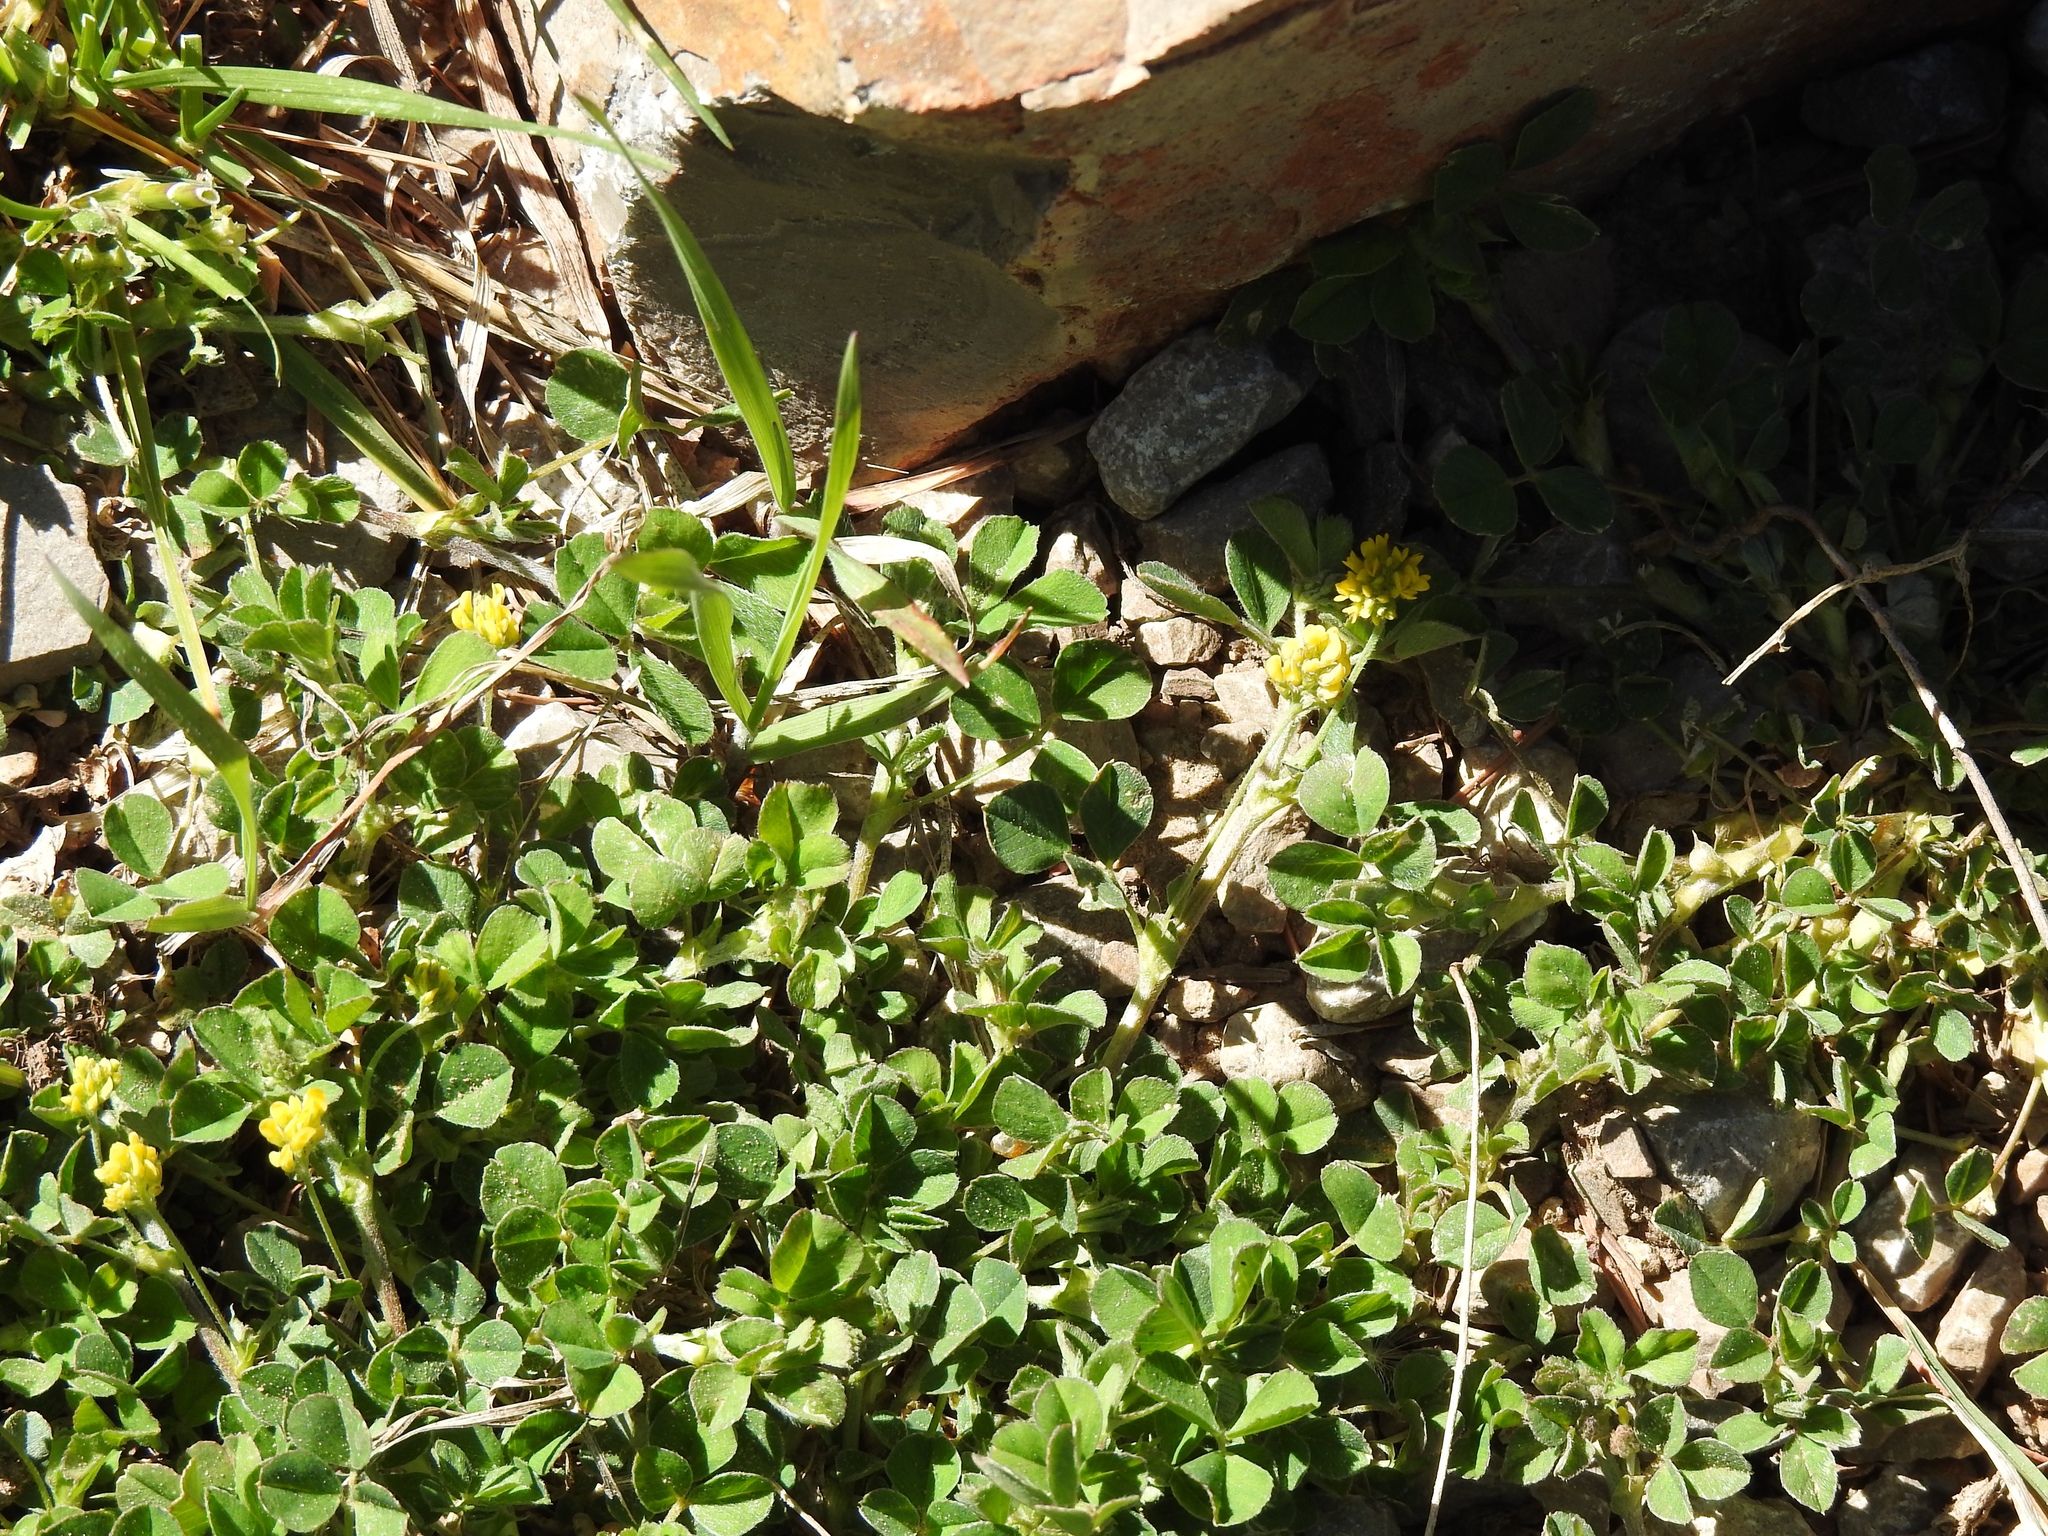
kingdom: Plantae
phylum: Tracheophyta
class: Magnoliopsida
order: Fabales
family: Fabaceae
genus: Medicago
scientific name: Medicago lupulina
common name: Black medick
